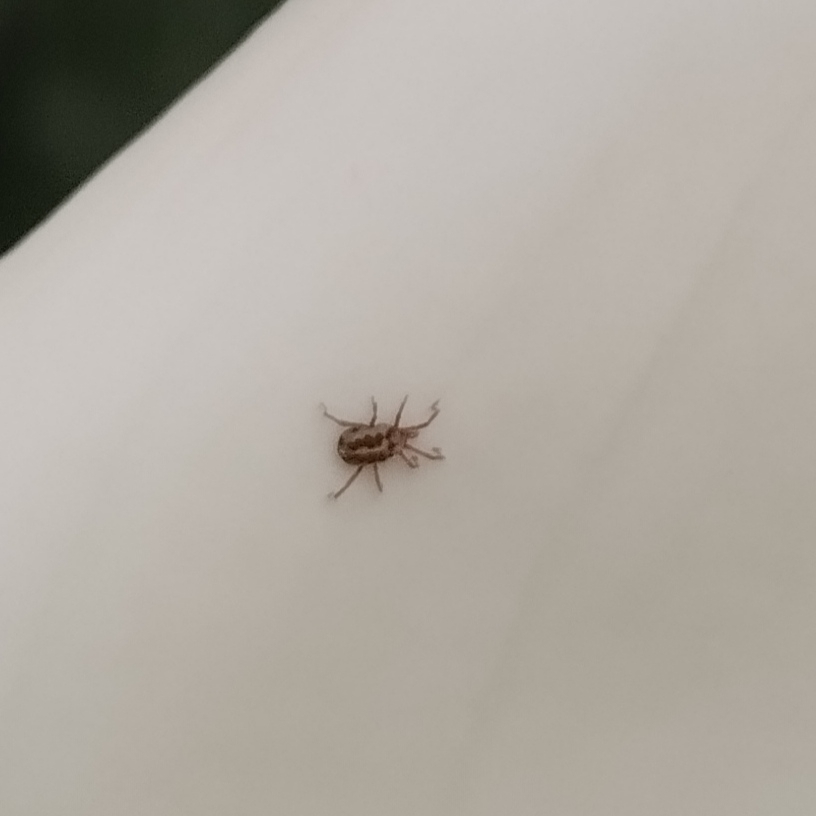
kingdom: Animalia
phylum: Arthropoda
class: Arachnida
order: Trombidiformes
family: Erythraeidae
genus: Balaustium
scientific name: Balaustium leanderi
